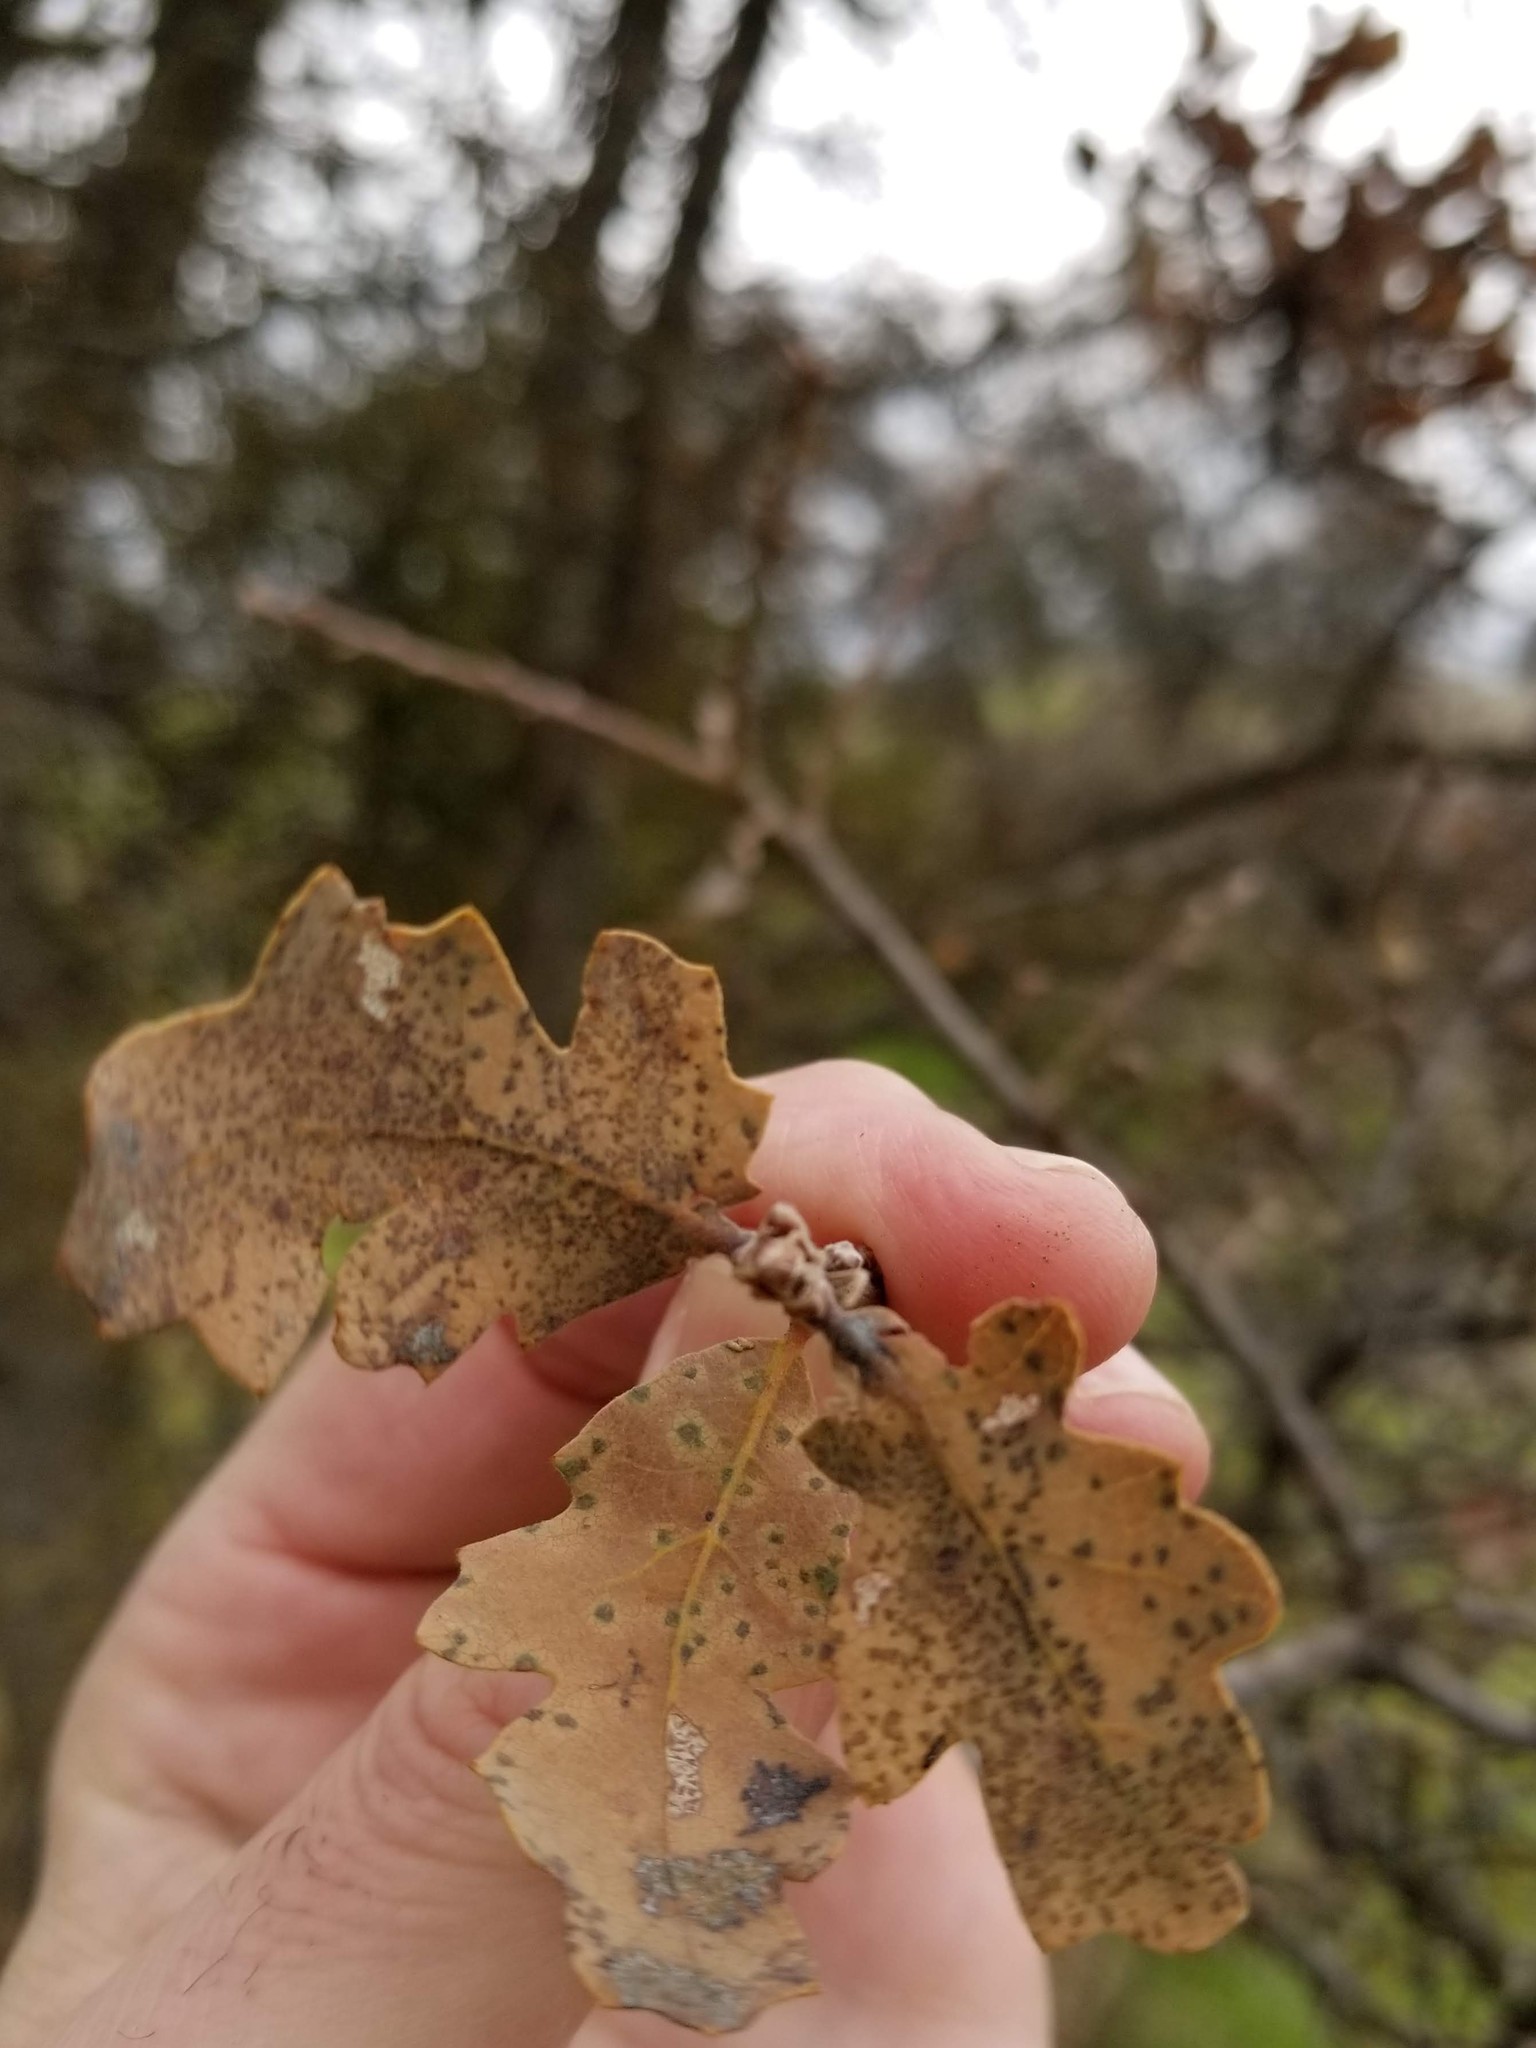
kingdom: Plantae
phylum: Tracheophyta
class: Magnoliopsida
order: Fagales
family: Fagaceae
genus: Quercus
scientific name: Quercus douglasii
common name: Blue oak
